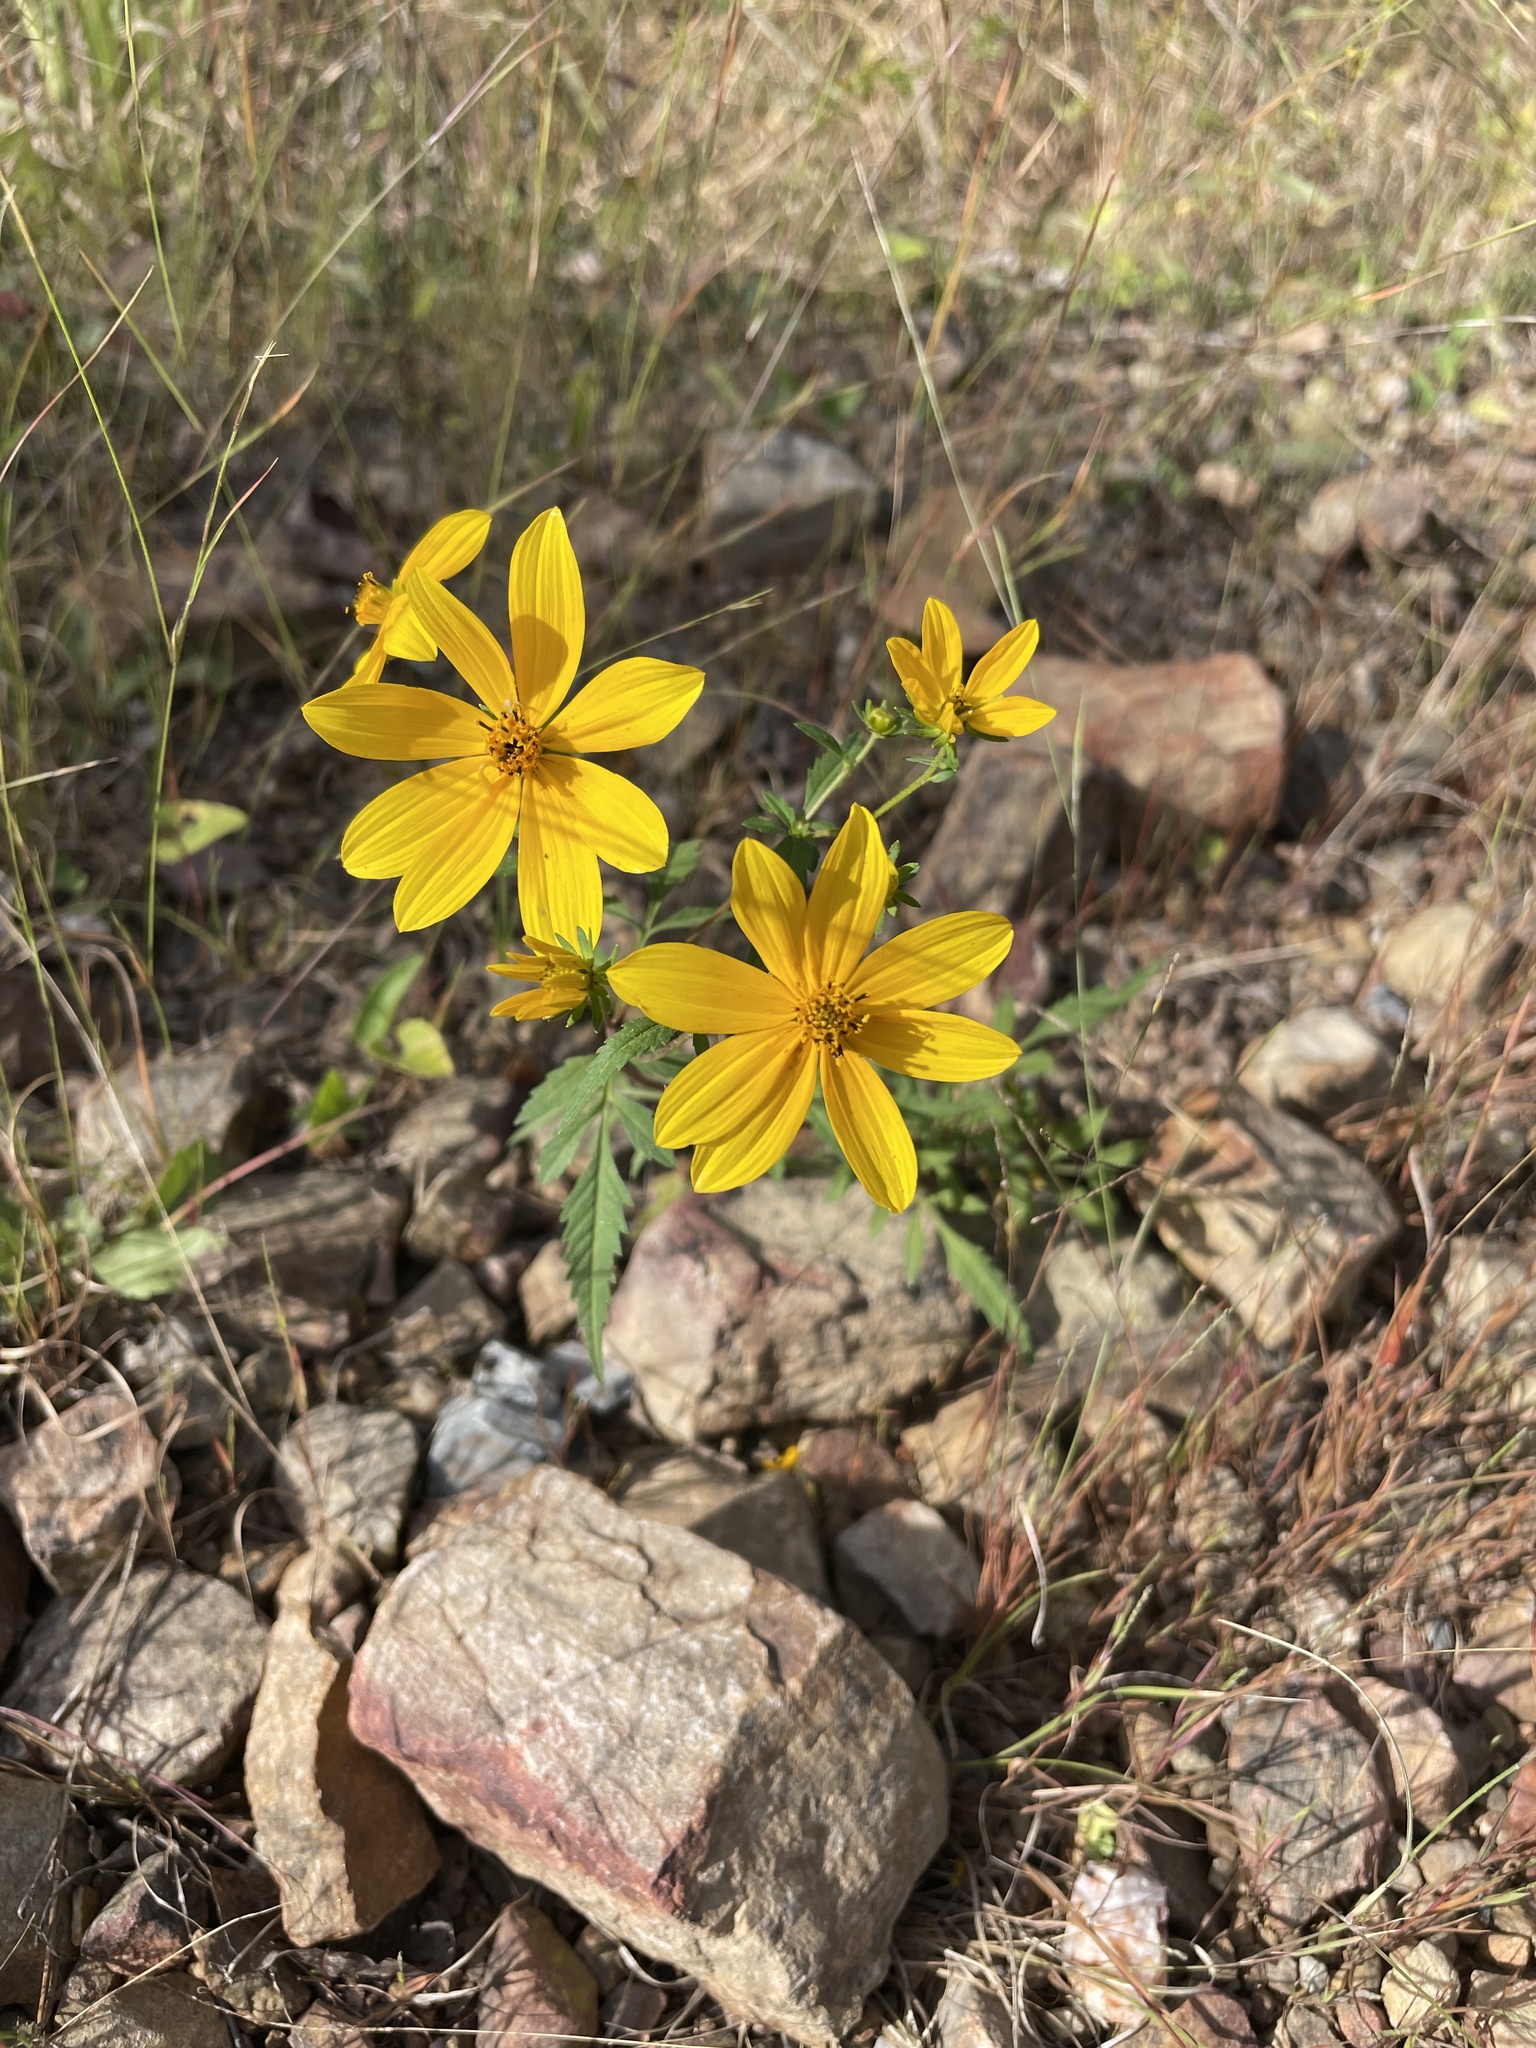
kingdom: Plantae
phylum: Tracheophyta
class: Magnoliopsida
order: Asterales
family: Asteraceae
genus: Bidens
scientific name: Bidens aristosa
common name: Western tickseed
